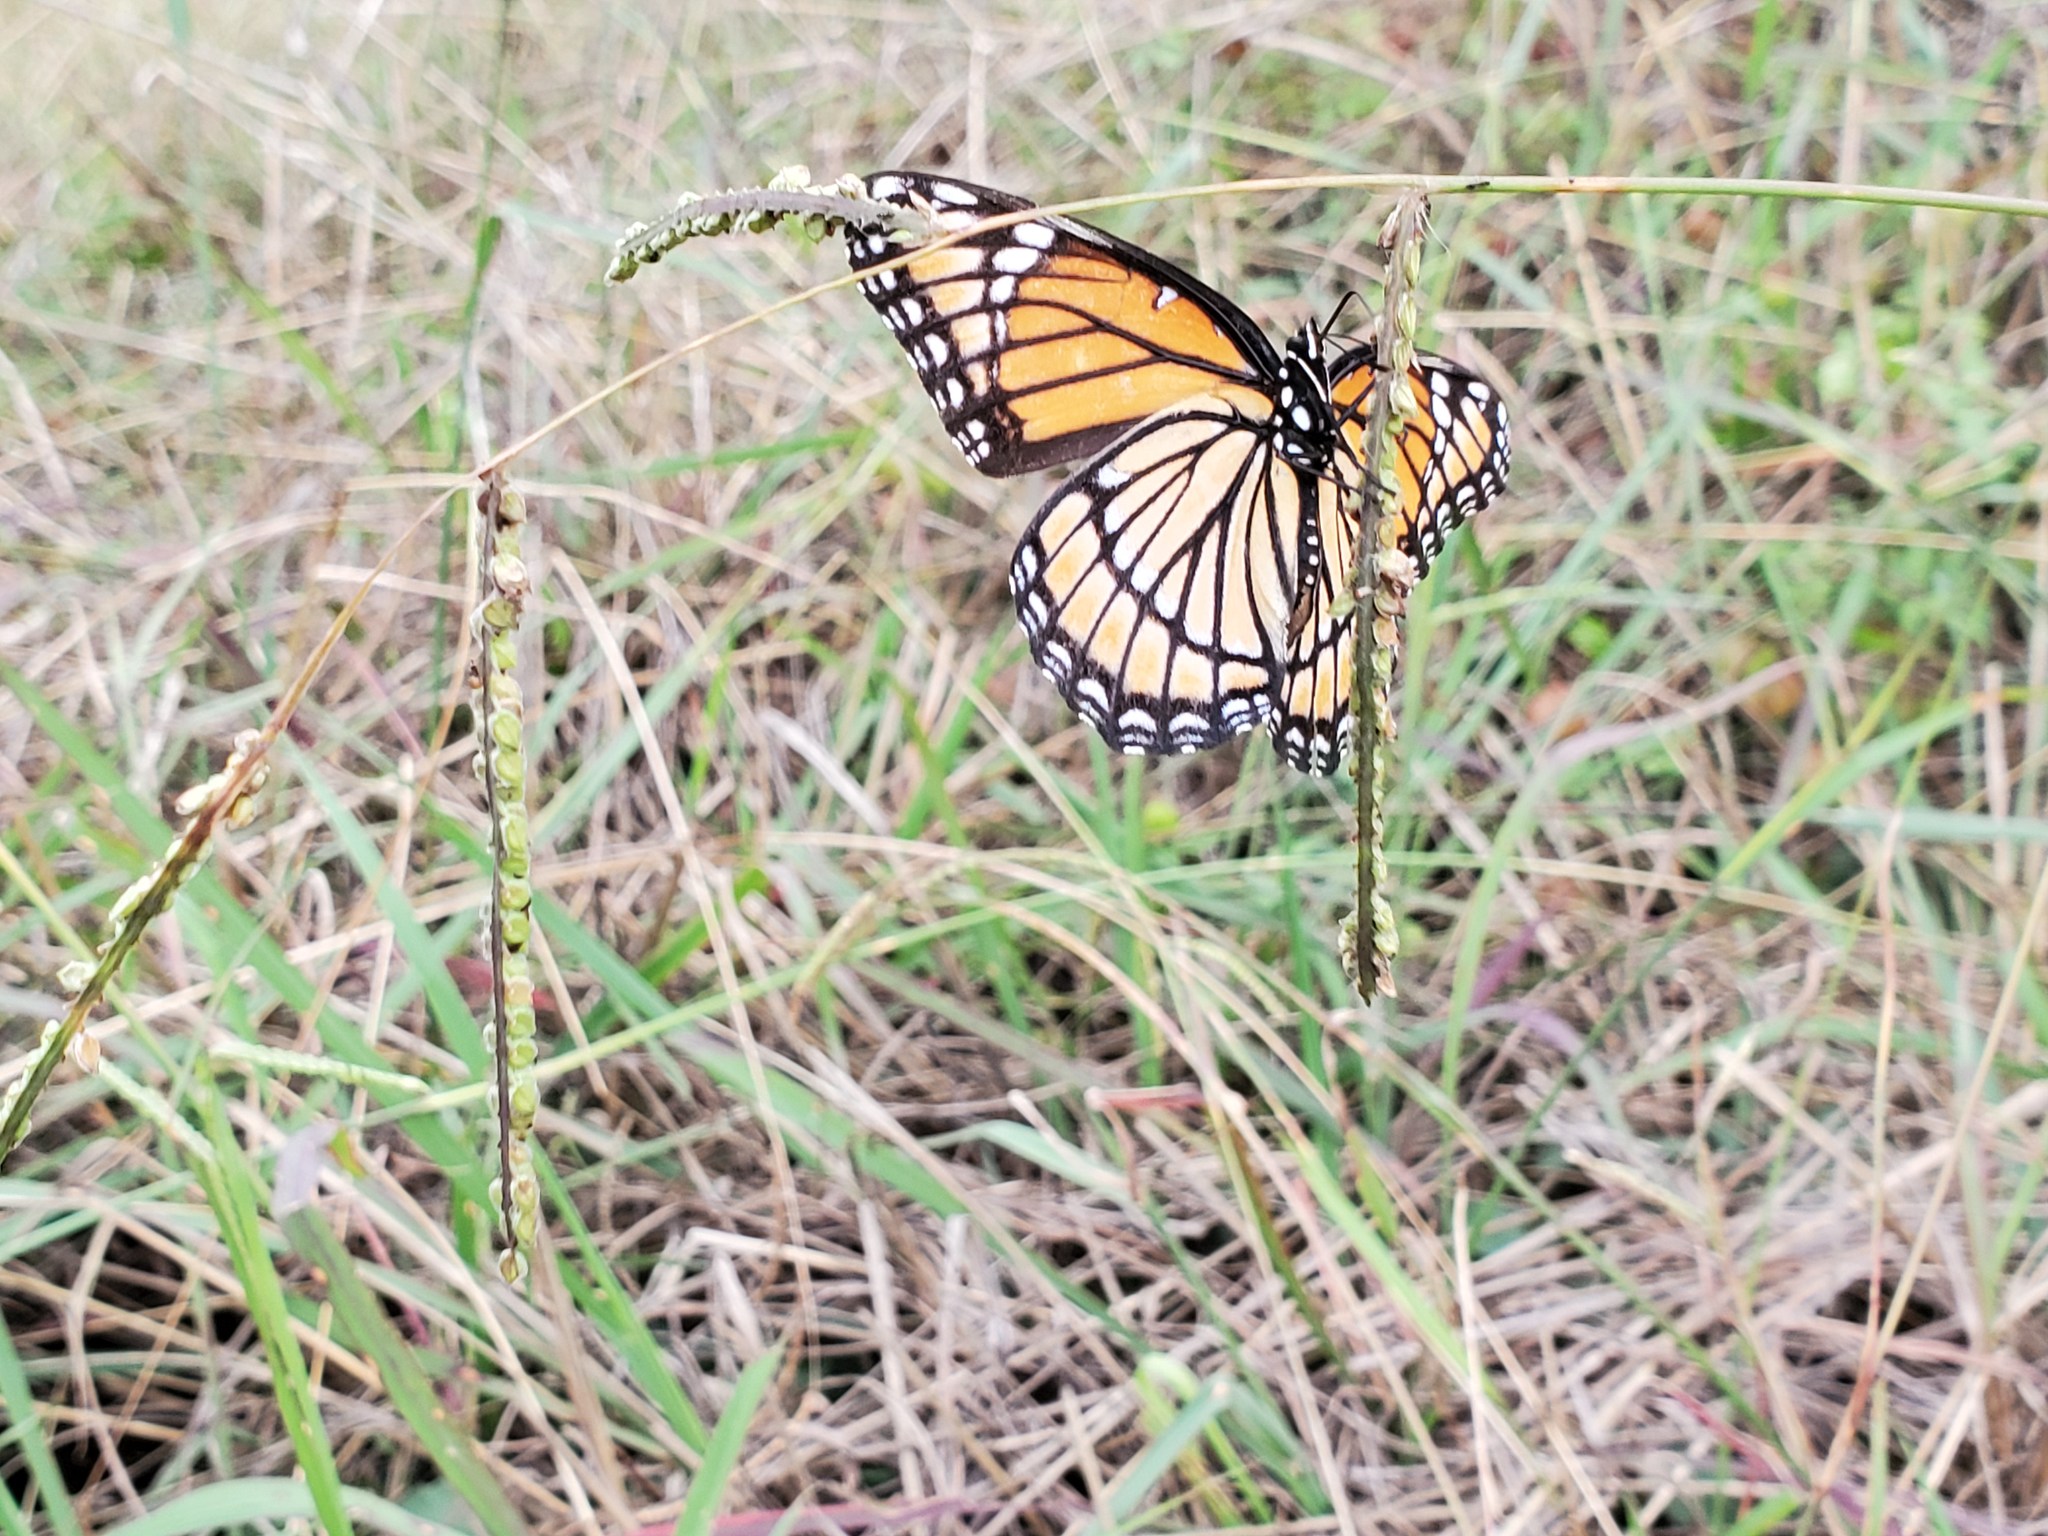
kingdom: Animalia
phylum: Arthropoda
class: Insecta
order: Lepidoptera
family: Nymphalidae
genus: Limenitis
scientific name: Limenitis archippus
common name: Viceroy
